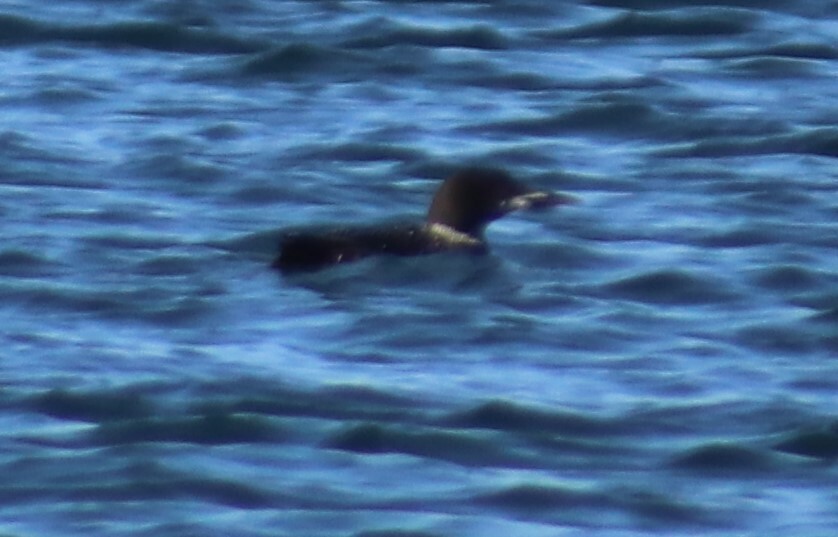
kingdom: Animalia
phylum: Chordata
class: Aves
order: Gaviiformes
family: Gaviidae
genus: Gavia
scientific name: Gavia immer
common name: Common loon
